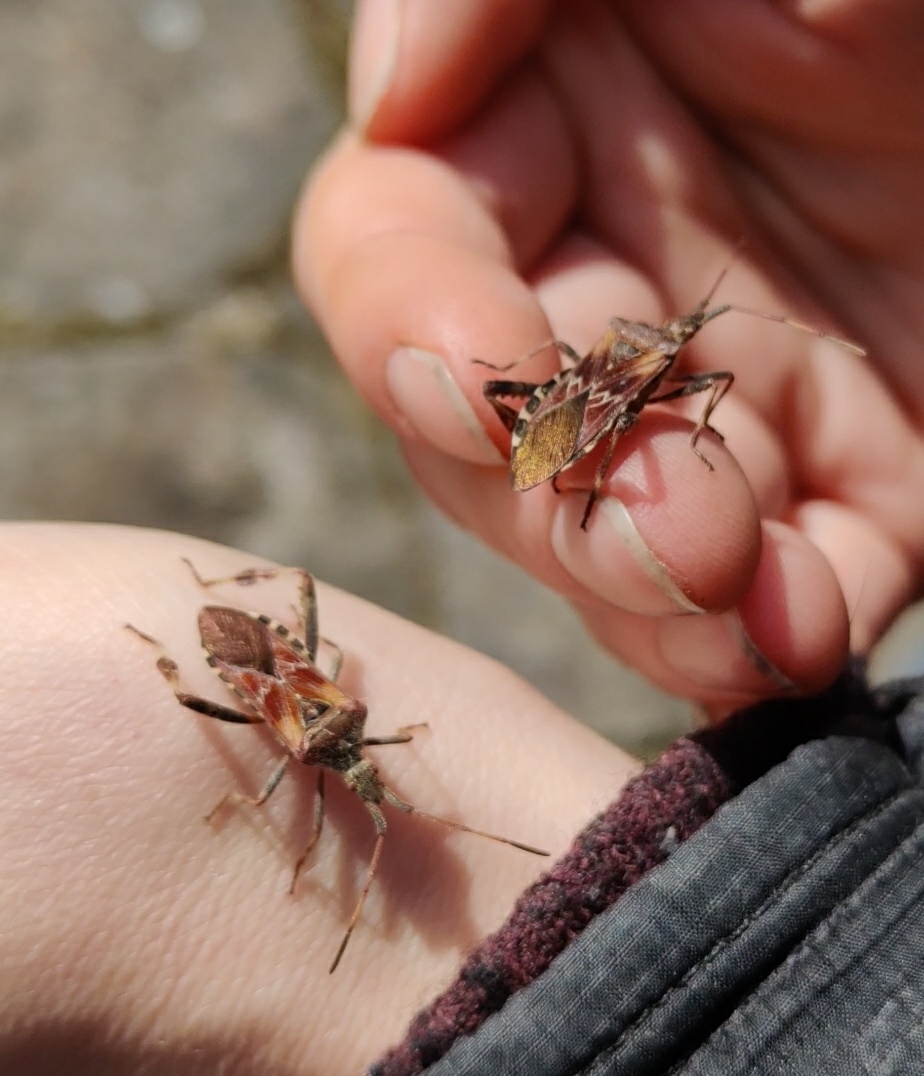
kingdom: Animalia
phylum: Arthropoda
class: Insecta
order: Hemiptera
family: Coreidae
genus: Leptoglossus
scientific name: Leptoglossus occidentalis
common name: Western conifer-seed bug
